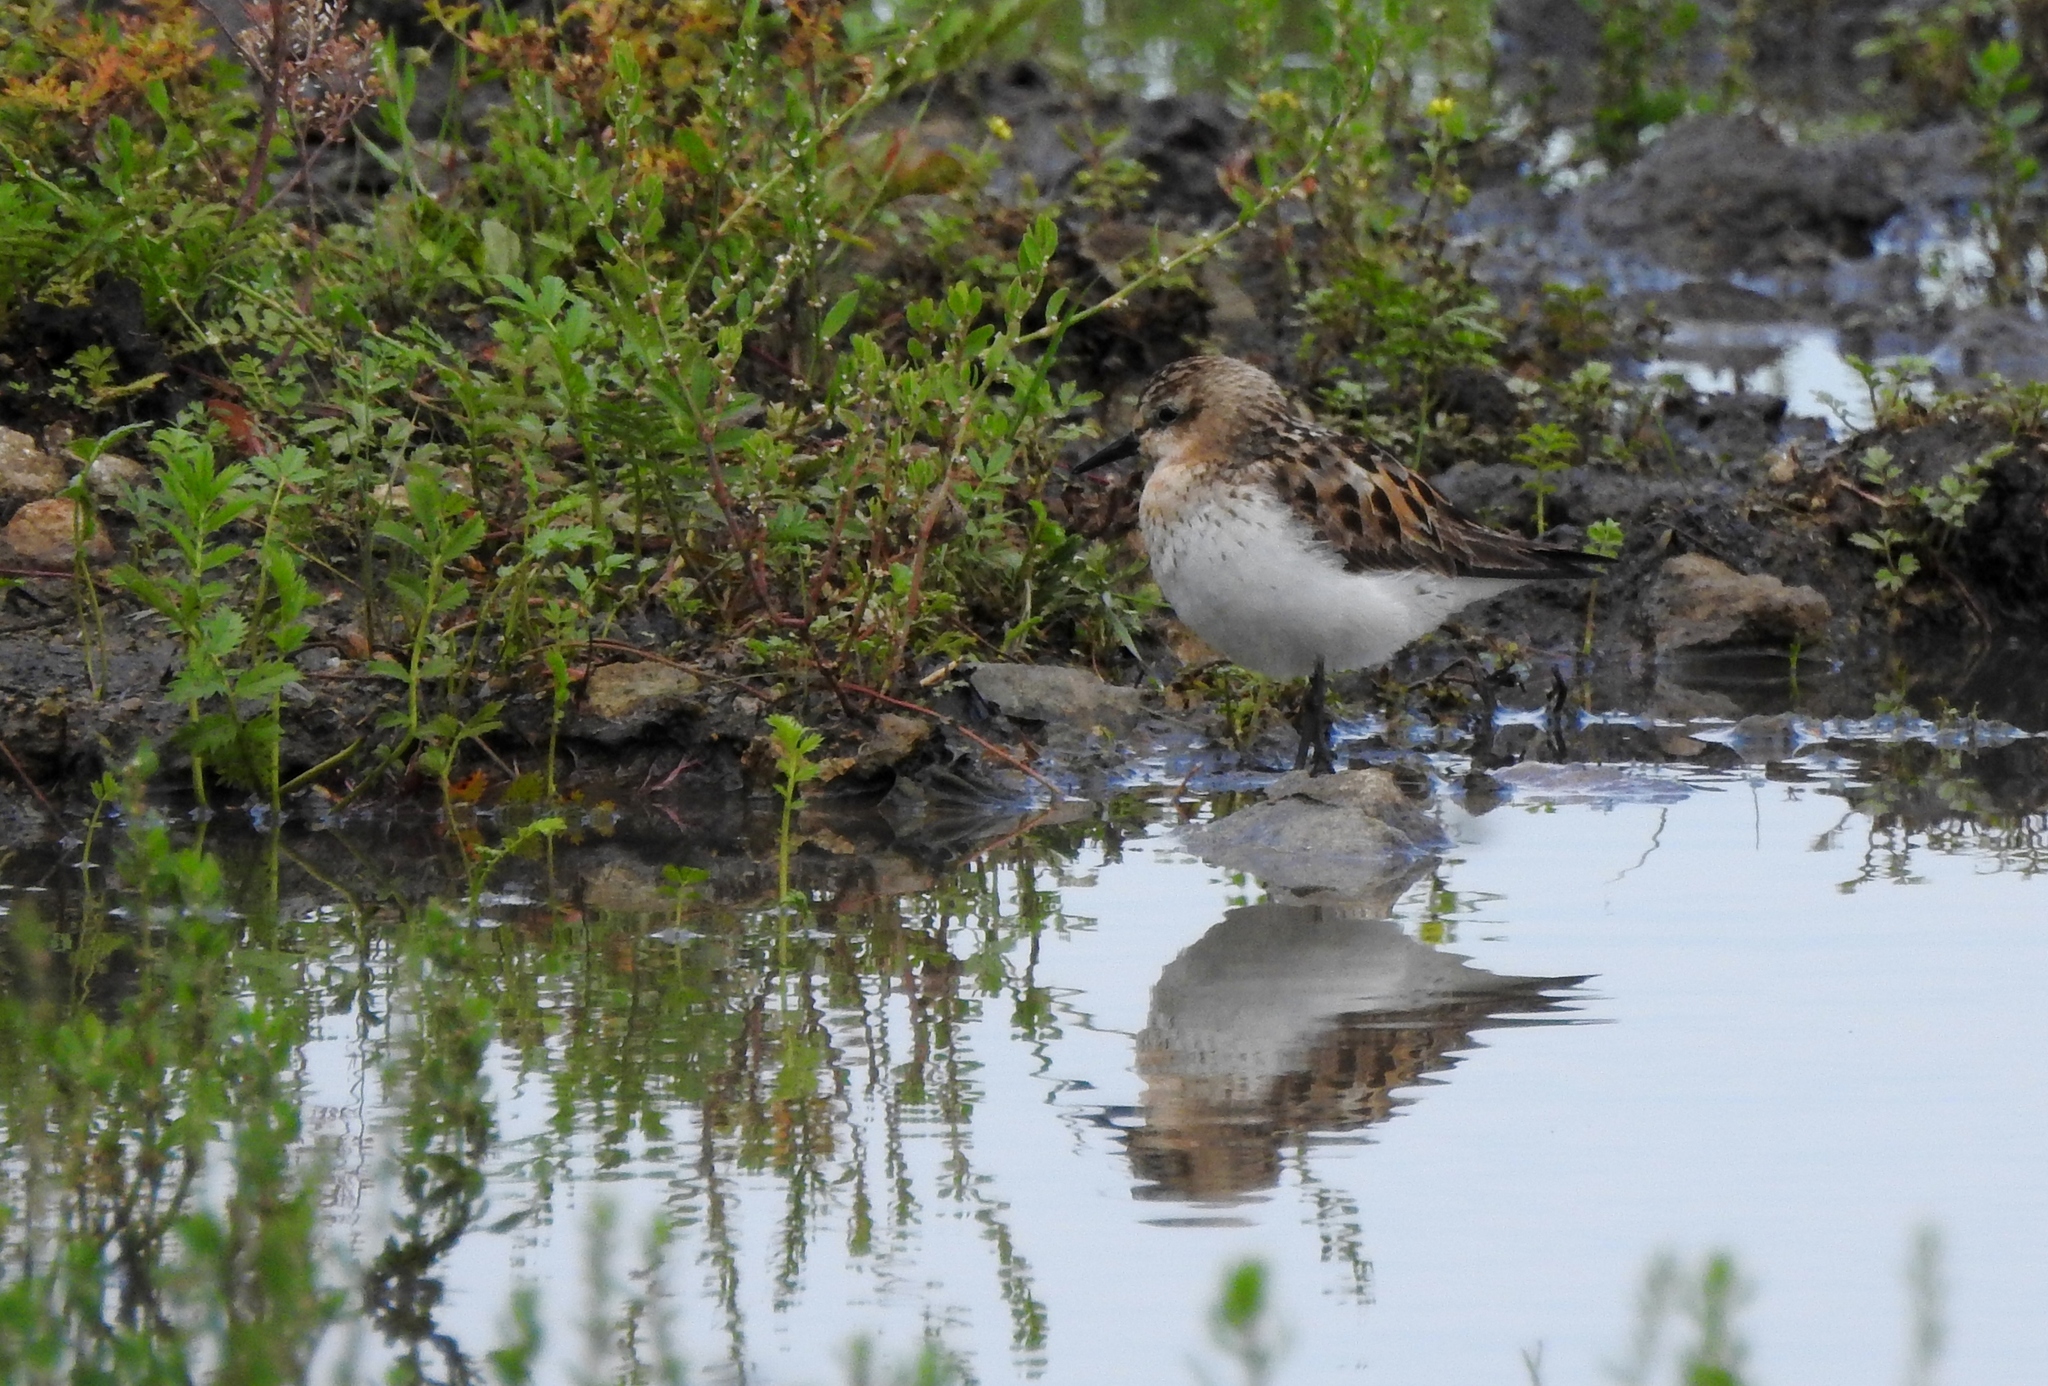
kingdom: Animalia
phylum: Chordata
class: Aves
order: Charadriiformes
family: Scolopacidae
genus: Calidris
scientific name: Calidris minuta
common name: Little stint
